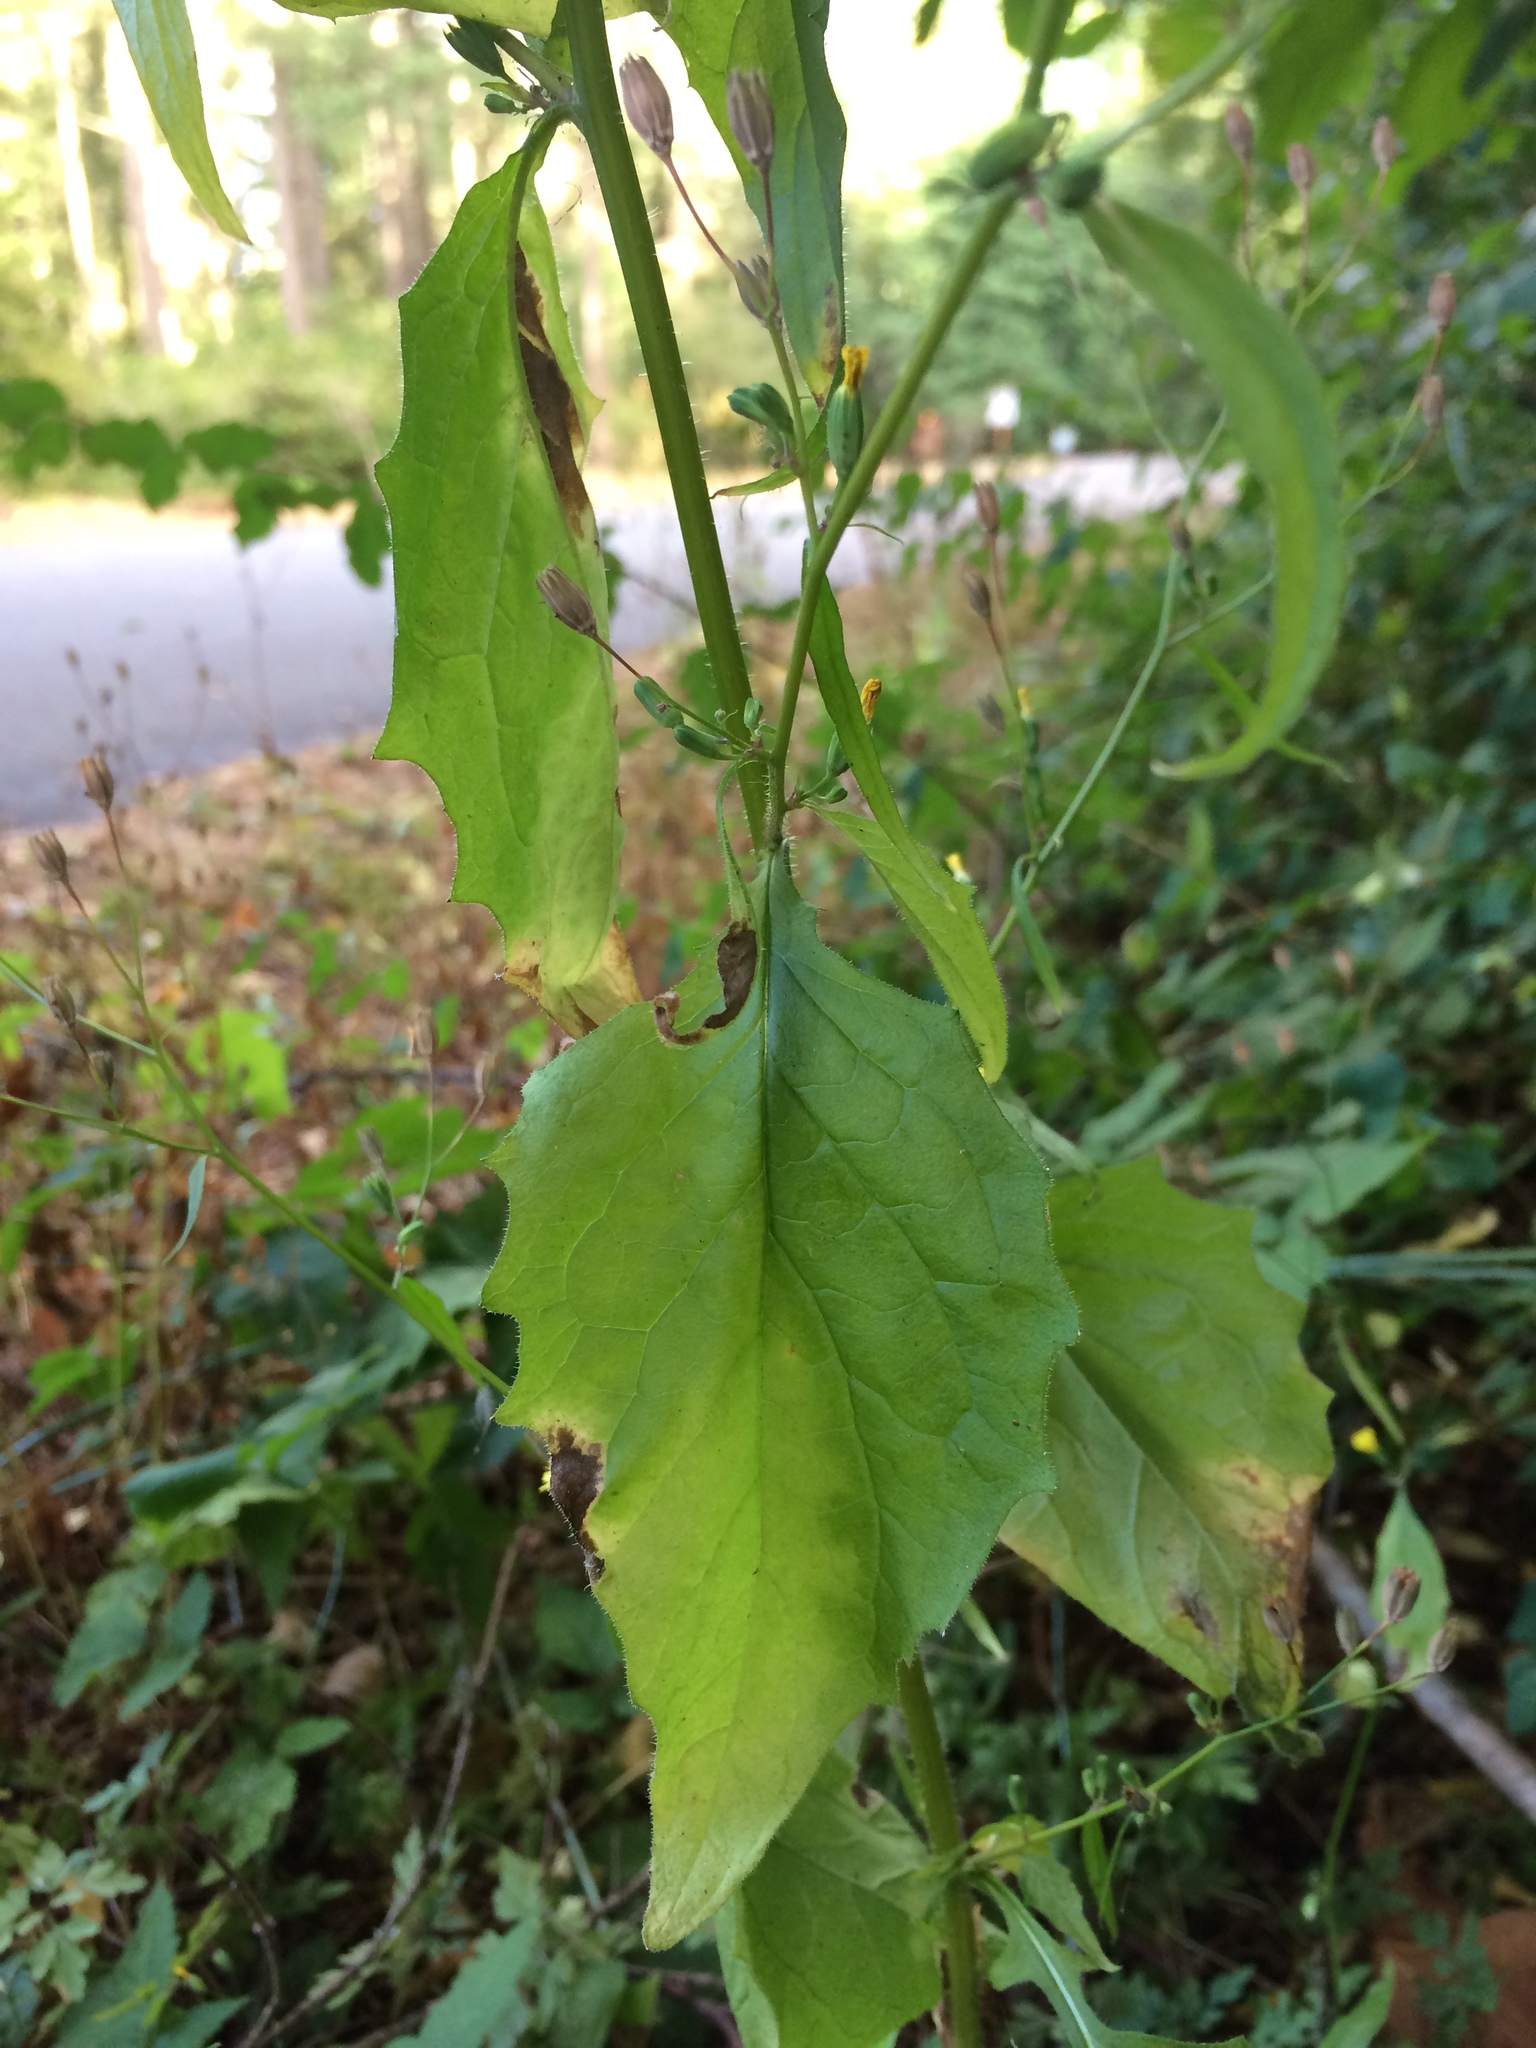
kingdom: Plantae
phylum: Tracheophyta
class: Magnoliopsida
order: Asterales
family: Asteraceae
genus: Lapsana
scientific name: Lapsana communis
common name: Nipplewort
